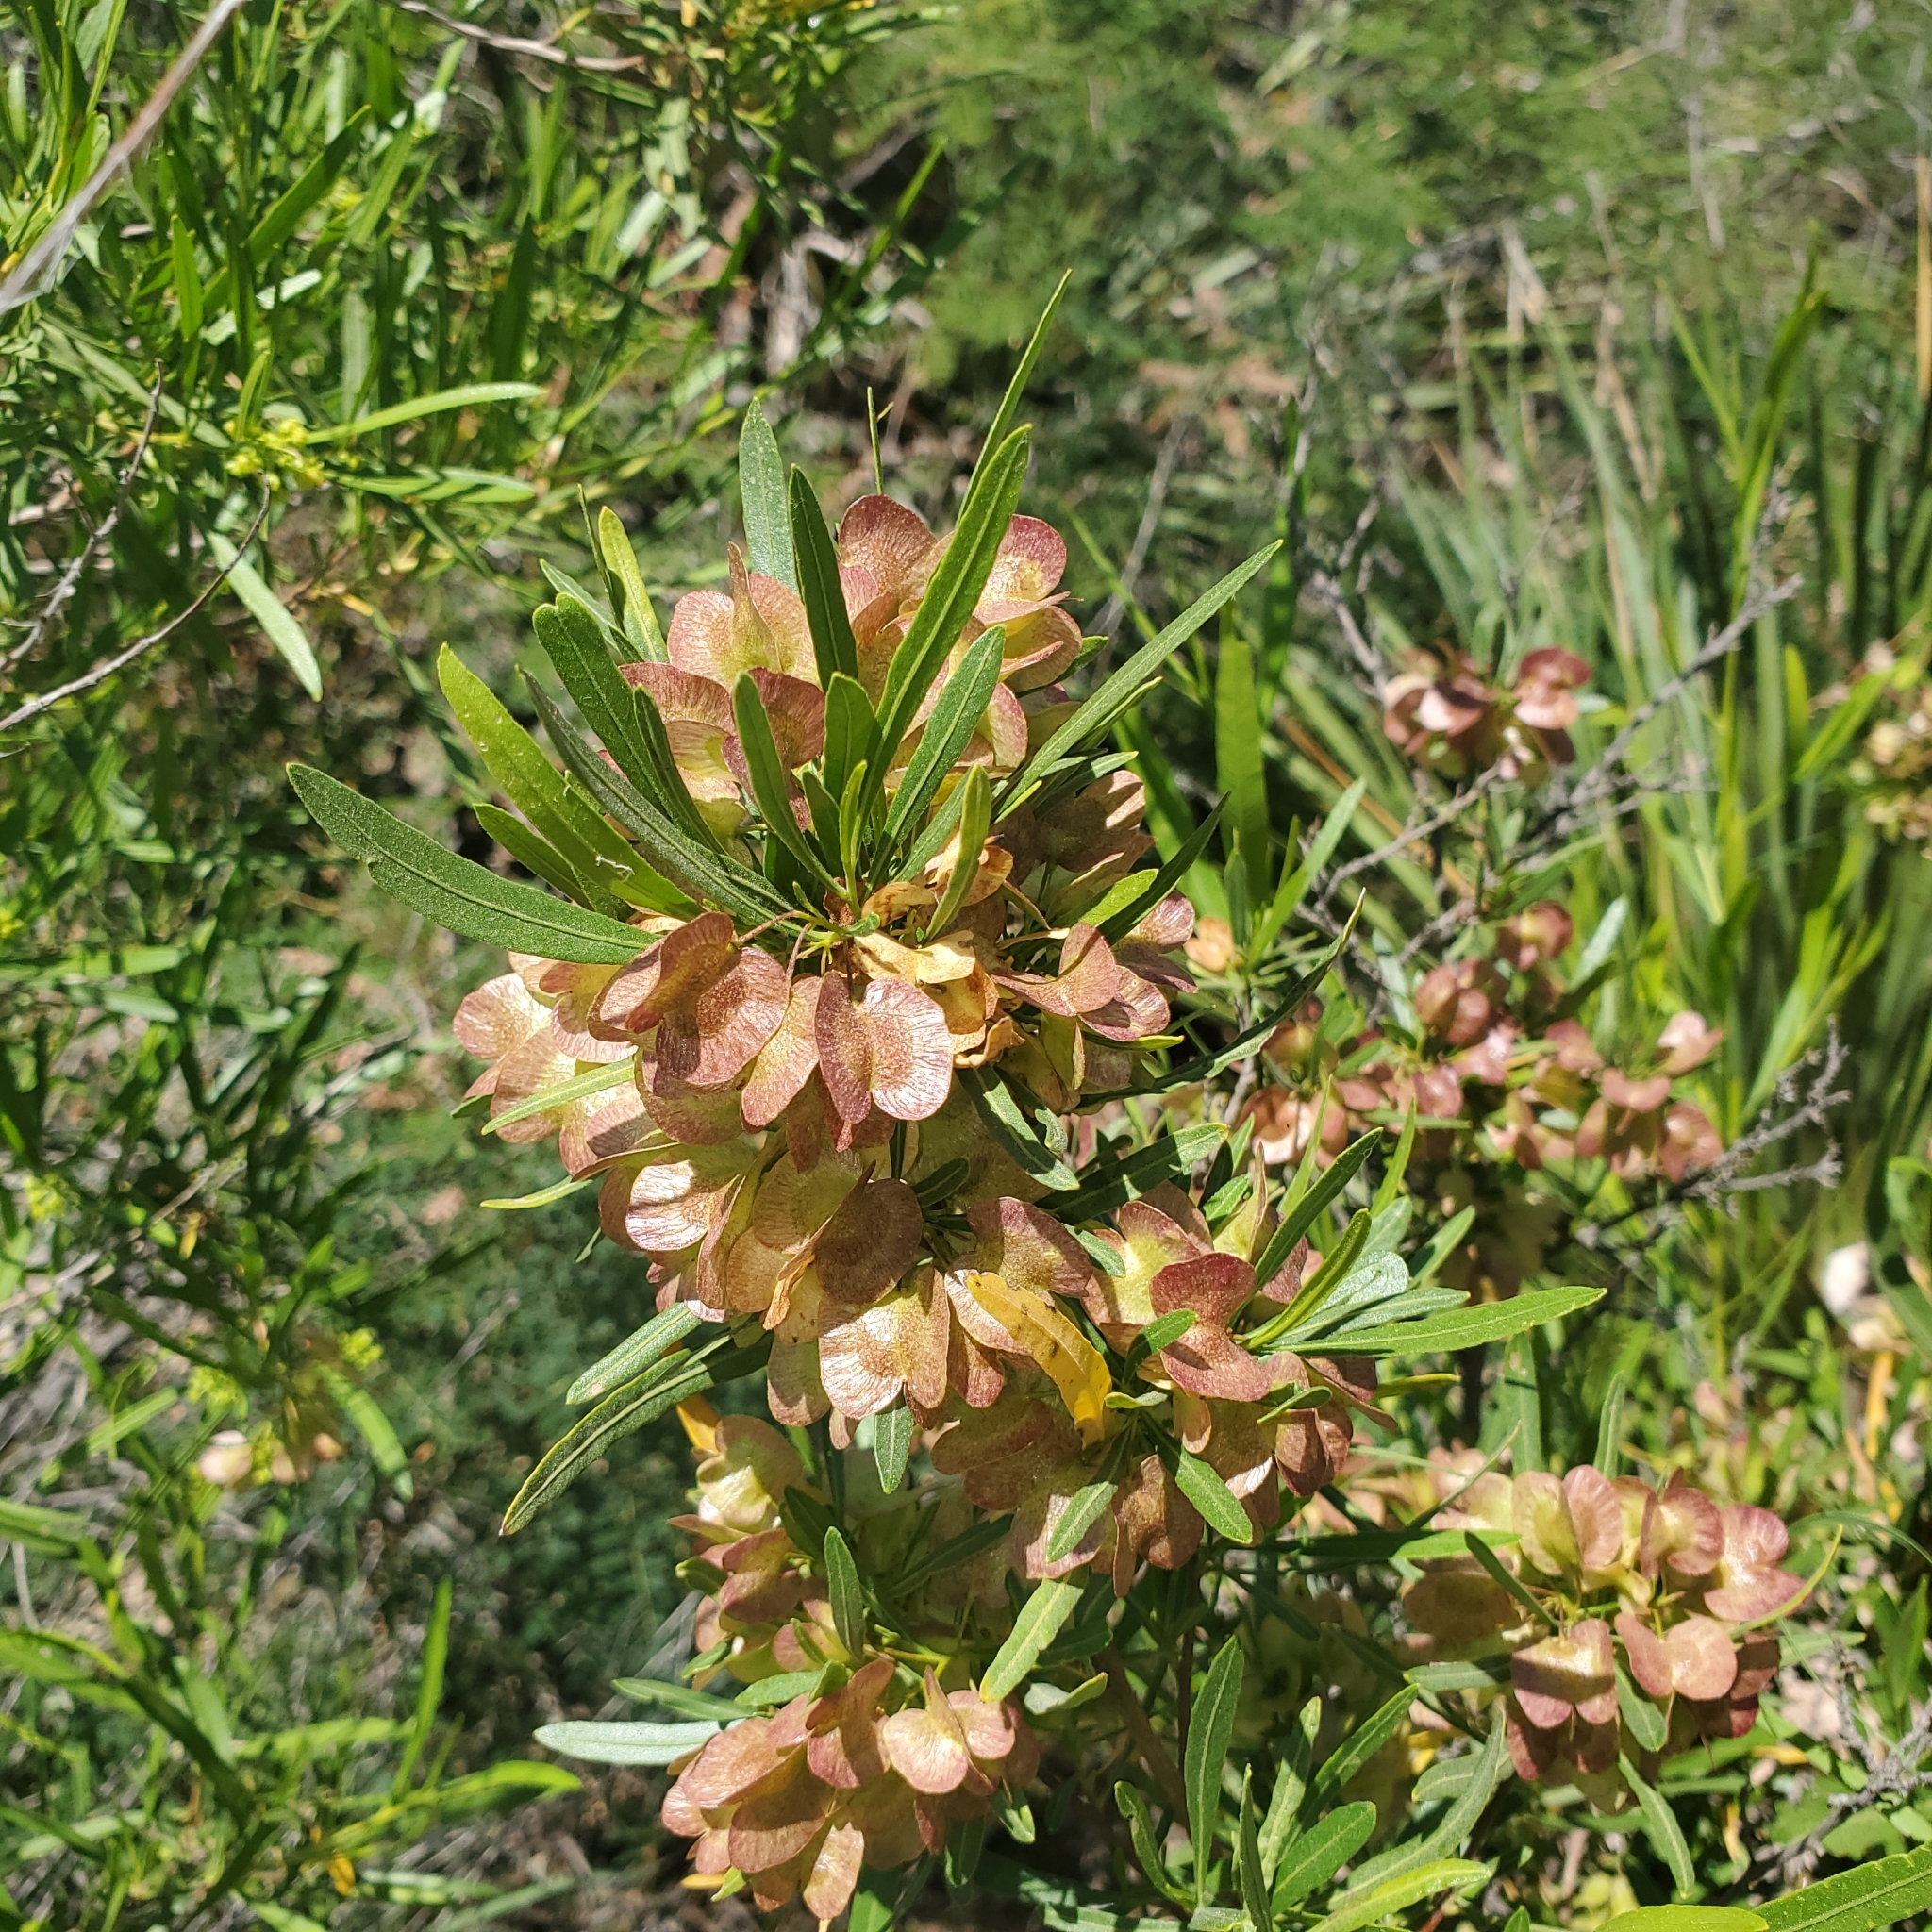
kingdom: Plantae
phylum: Tracheophyta
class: Magnoliopsida
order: Sapindales
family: Sapindaceae
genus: Dodonaea
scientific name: Dodonaea viscosa
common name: Hopbush
